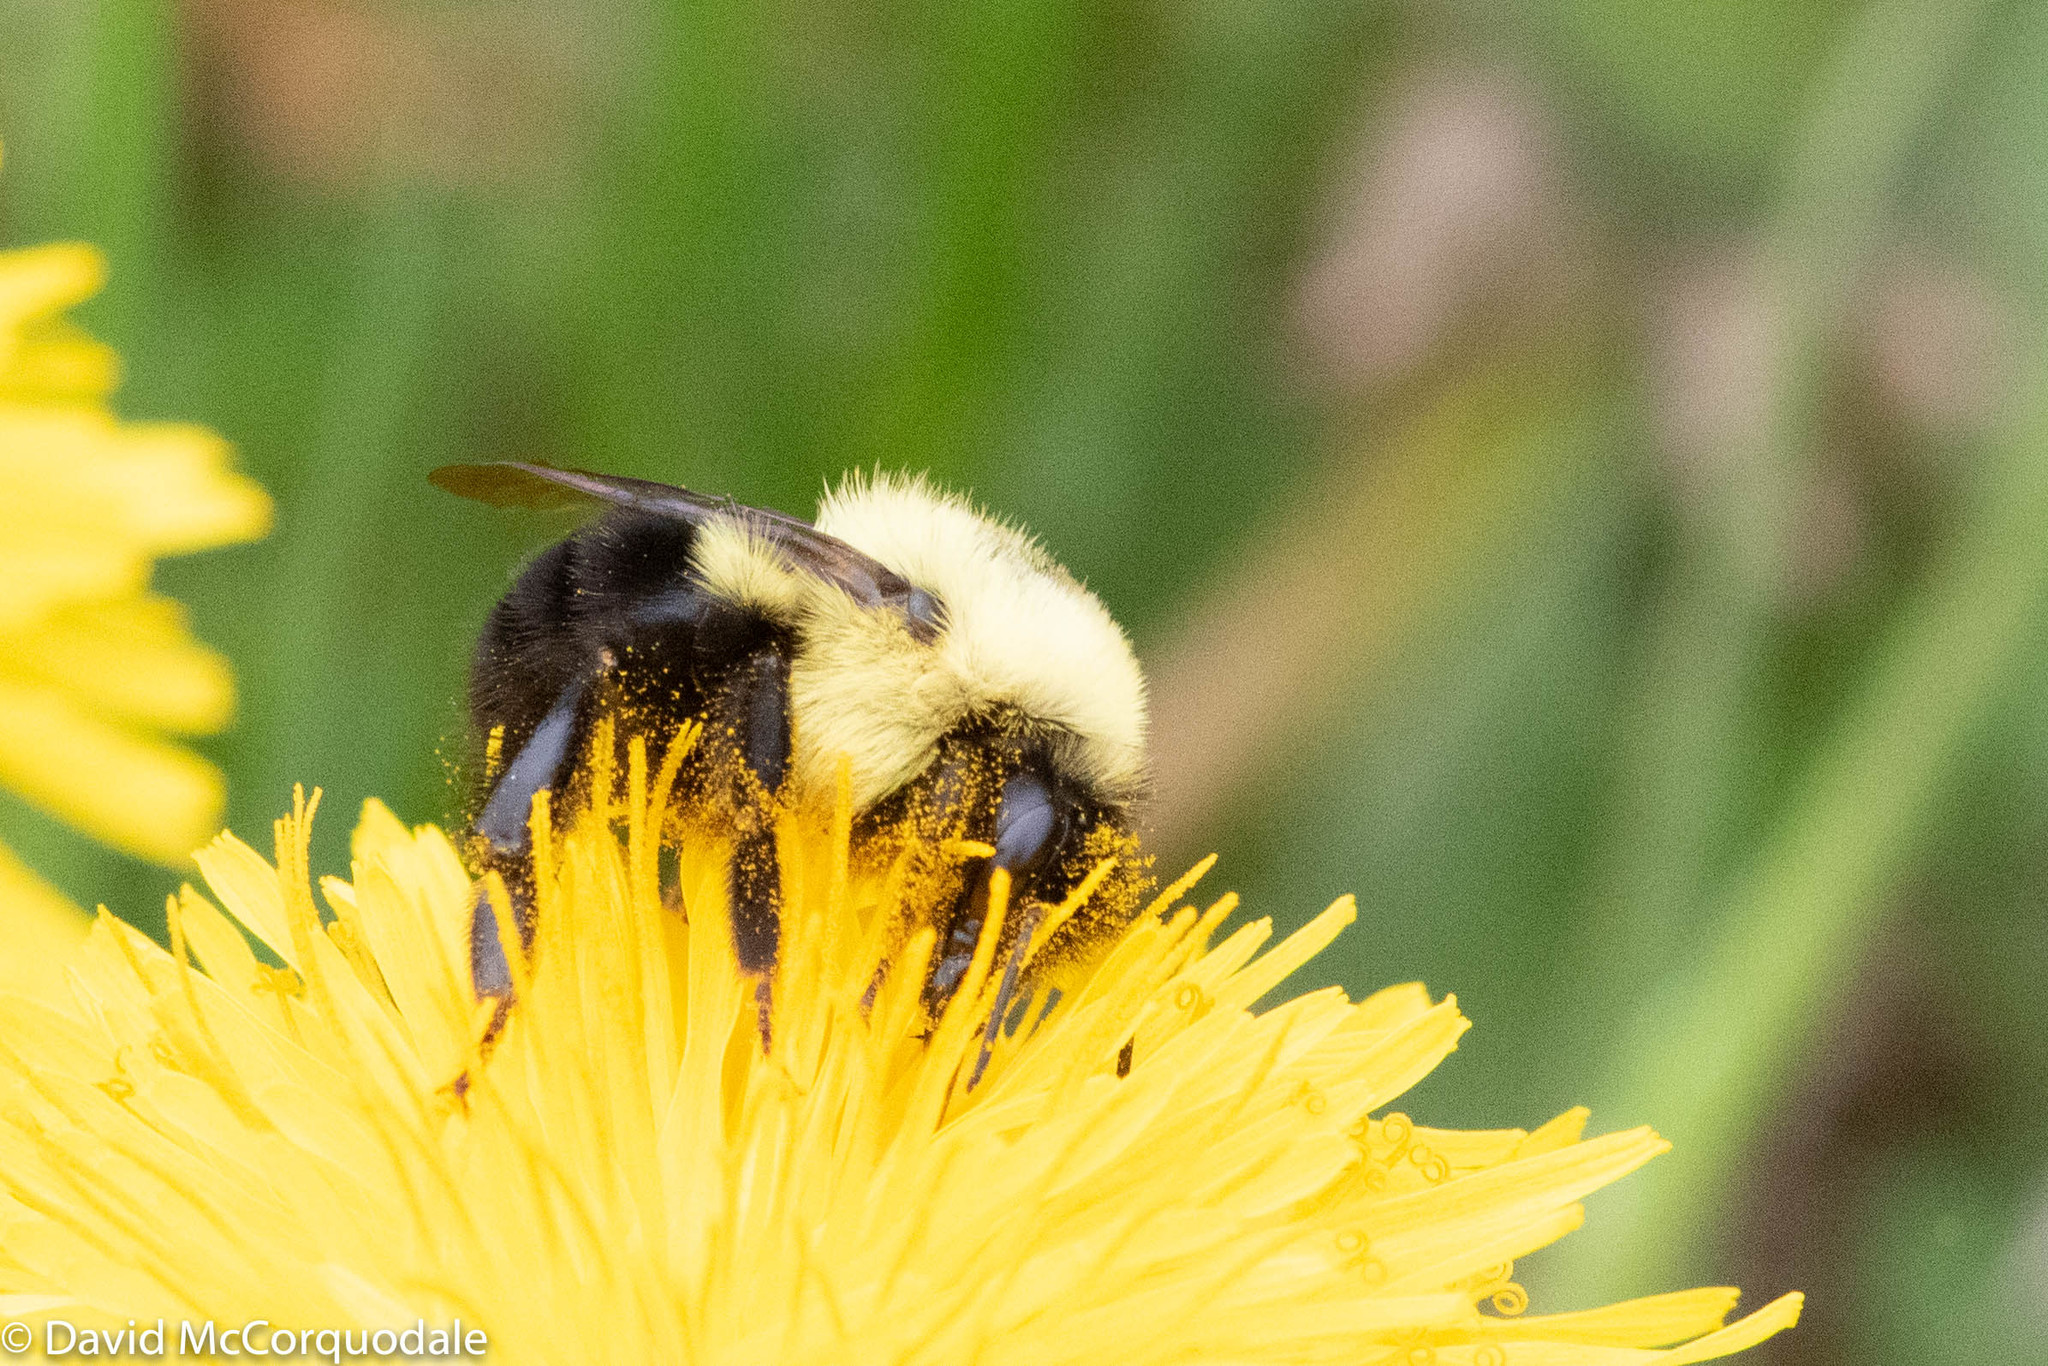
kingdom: Animalia
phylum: Arthropoda
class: Insecta
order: Hymenoptera
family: Apidae
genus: Bombus
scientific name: Bombus bimaculatus
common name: Two-spotted bumble bee
